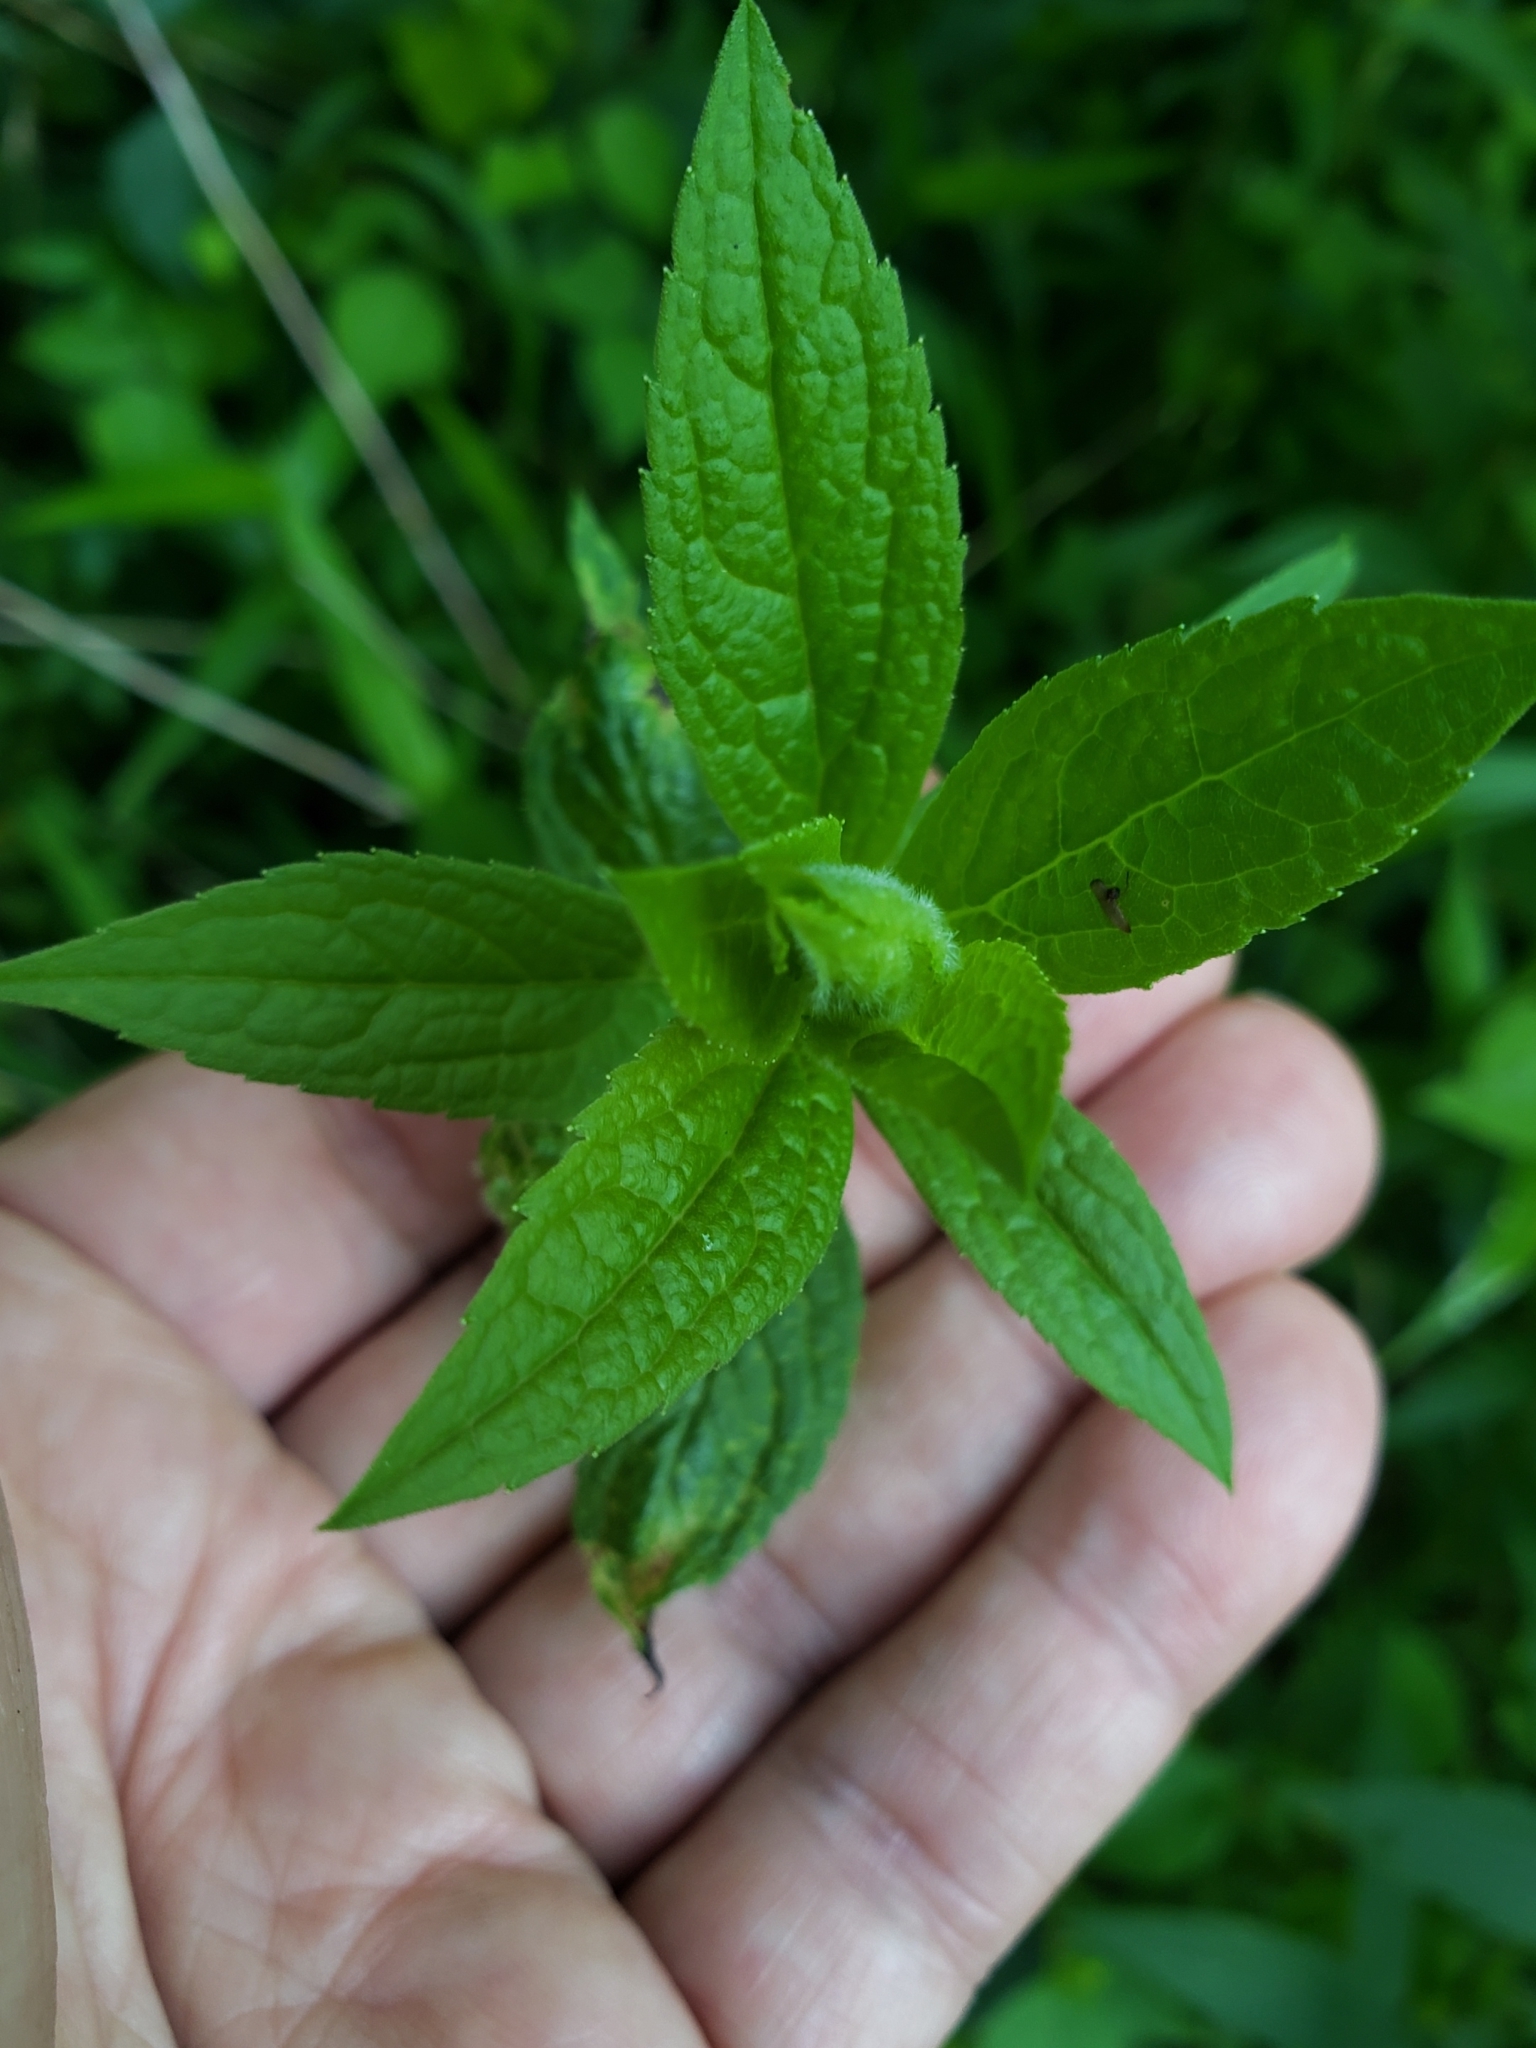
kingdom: Animalia
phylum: Arthropoda
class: Insecta
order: Diptera
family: Cecidomyiidae
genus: Asteromyia
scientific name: Asteromyia carbonifera
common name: Carbonifera goldenrod gall midge
